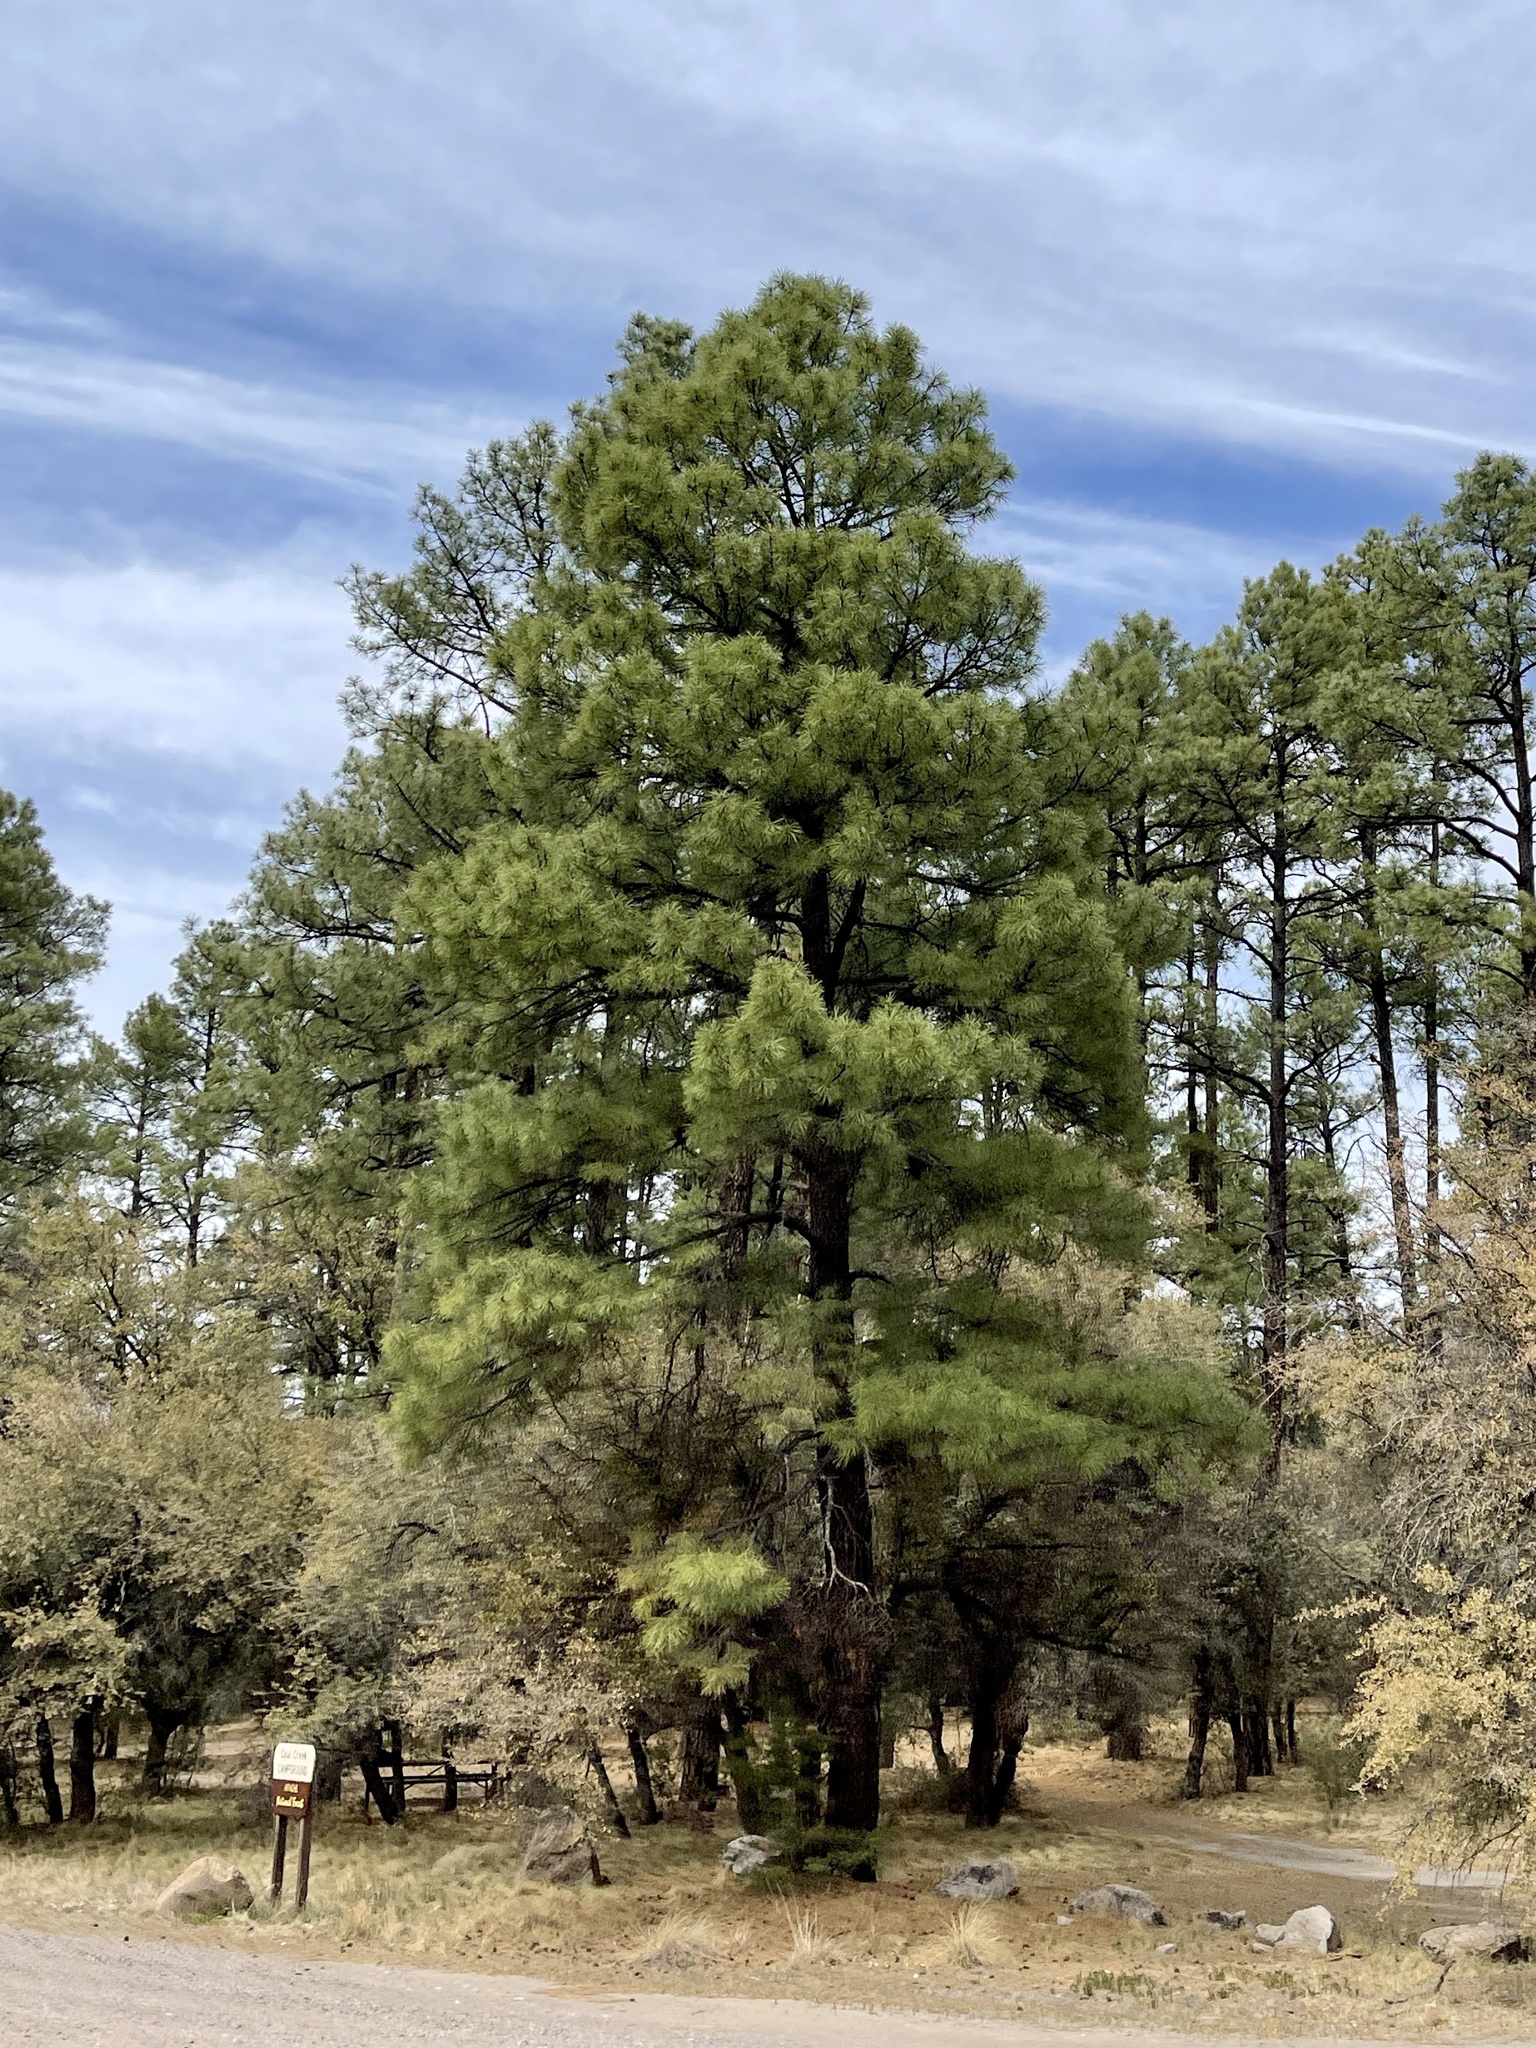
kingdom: Plantae
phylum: Tracheophyta
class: Pinopsida
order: Pinales
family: Pinaceae
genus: Pinus
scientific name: Pinus ponderosa
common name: Western yellow-pine
